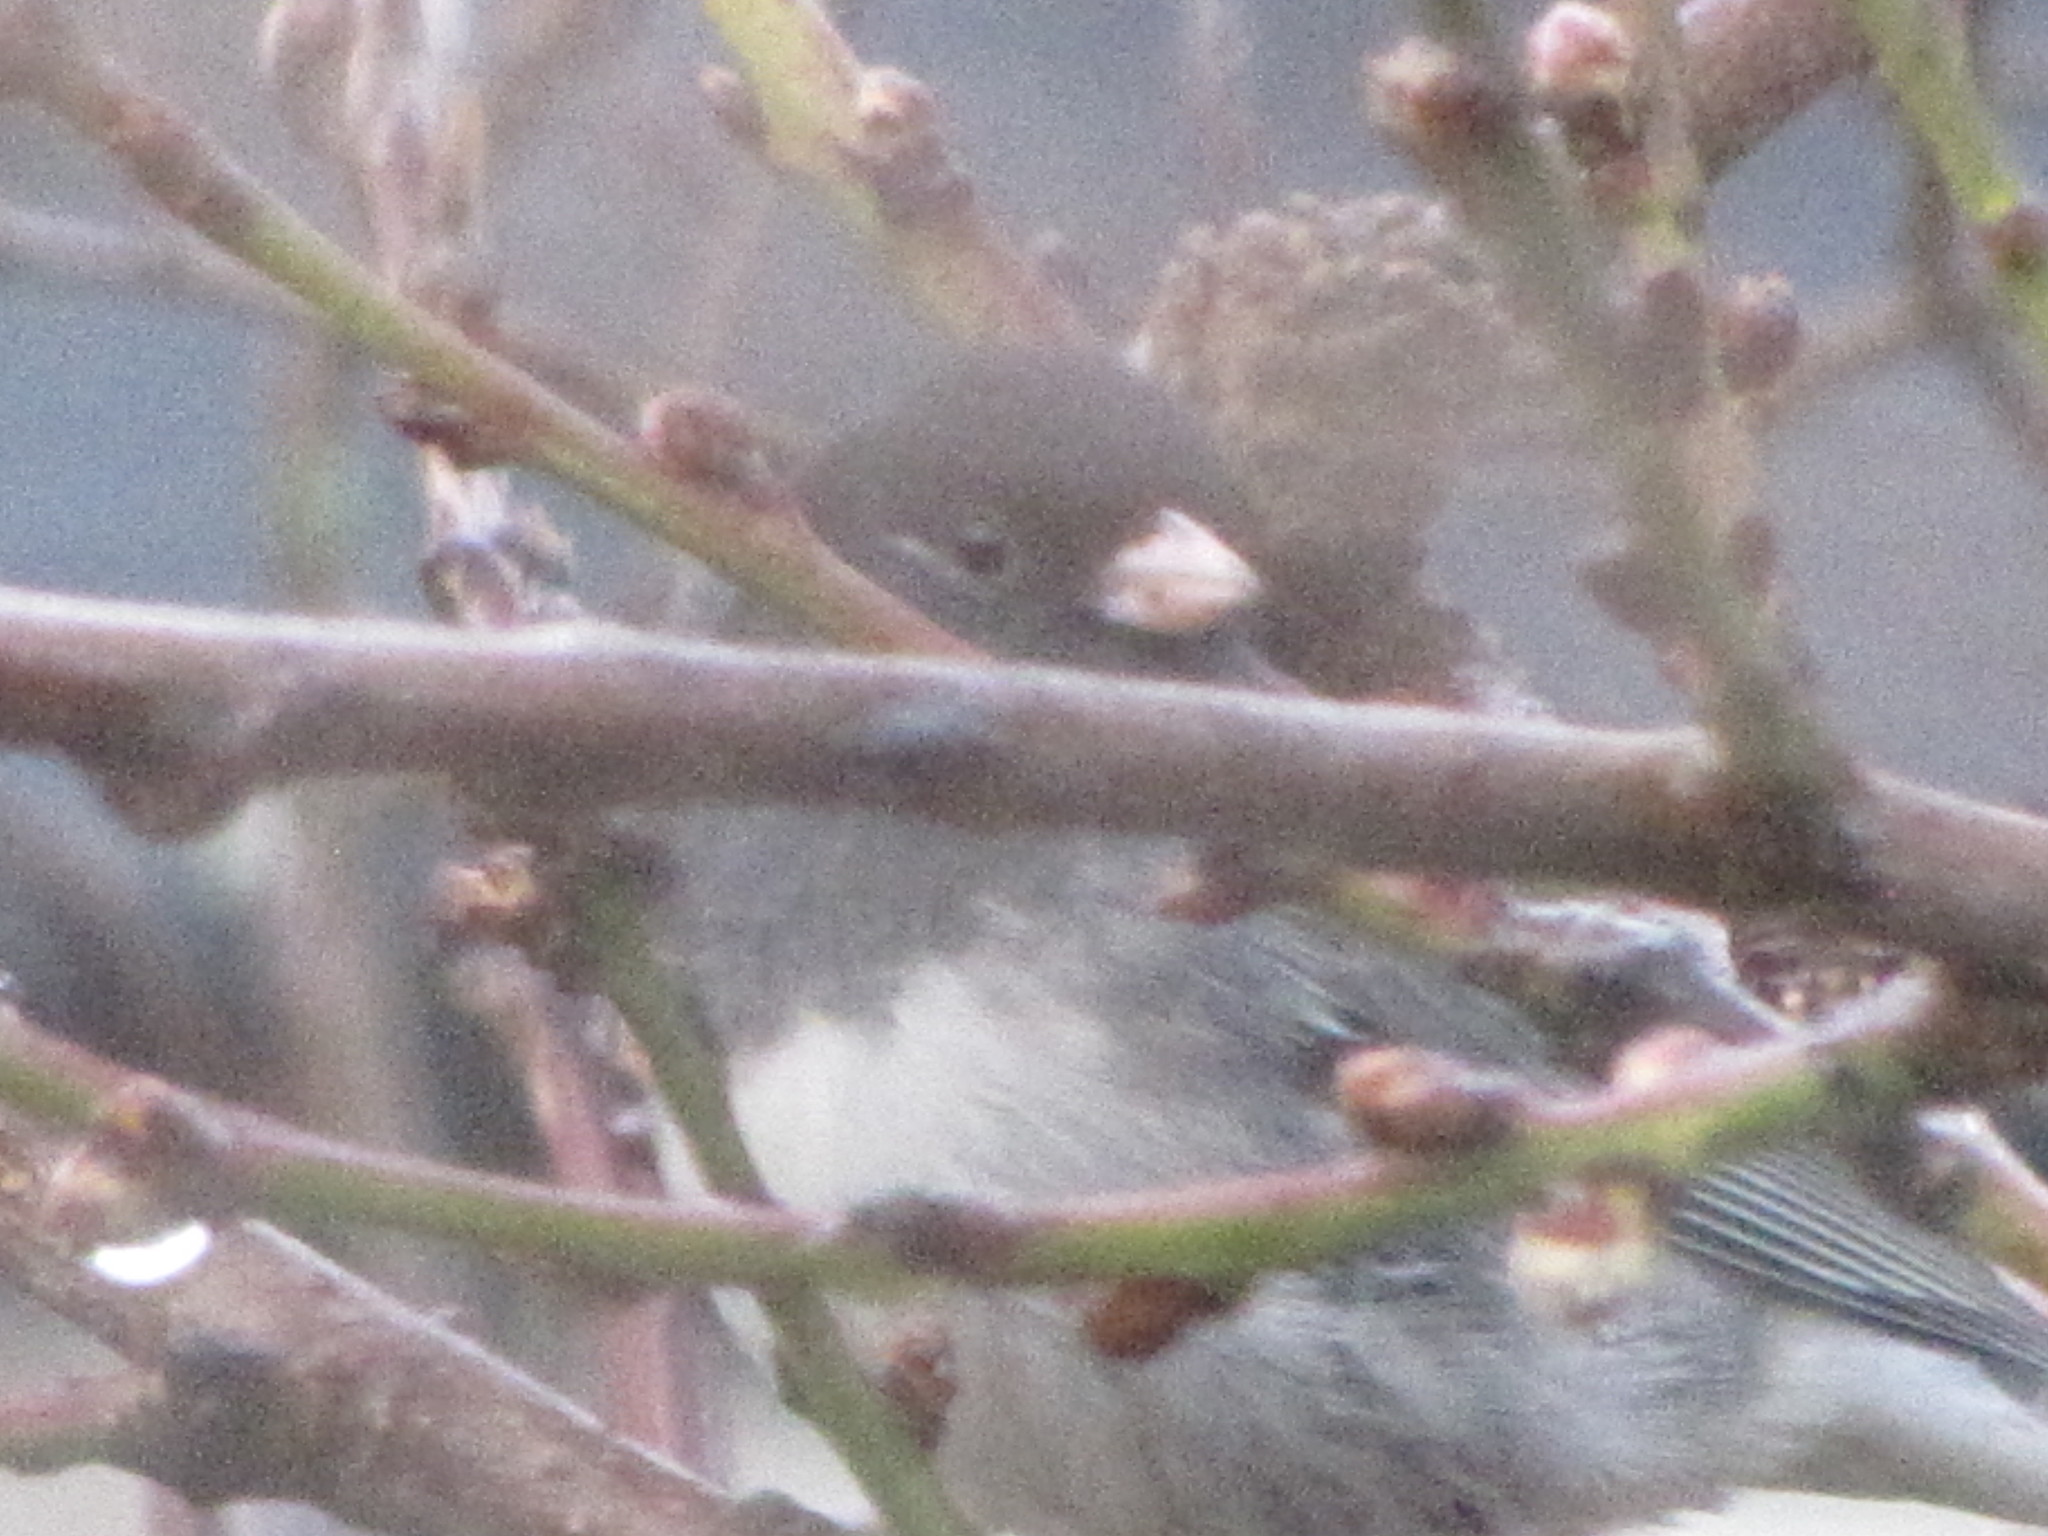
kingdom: Animalia
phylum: Chordata
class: Aves
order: Passeriformes
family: Passerellidae
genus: Junco
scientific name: Junco hyemalis
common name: Dark-eyed junco
